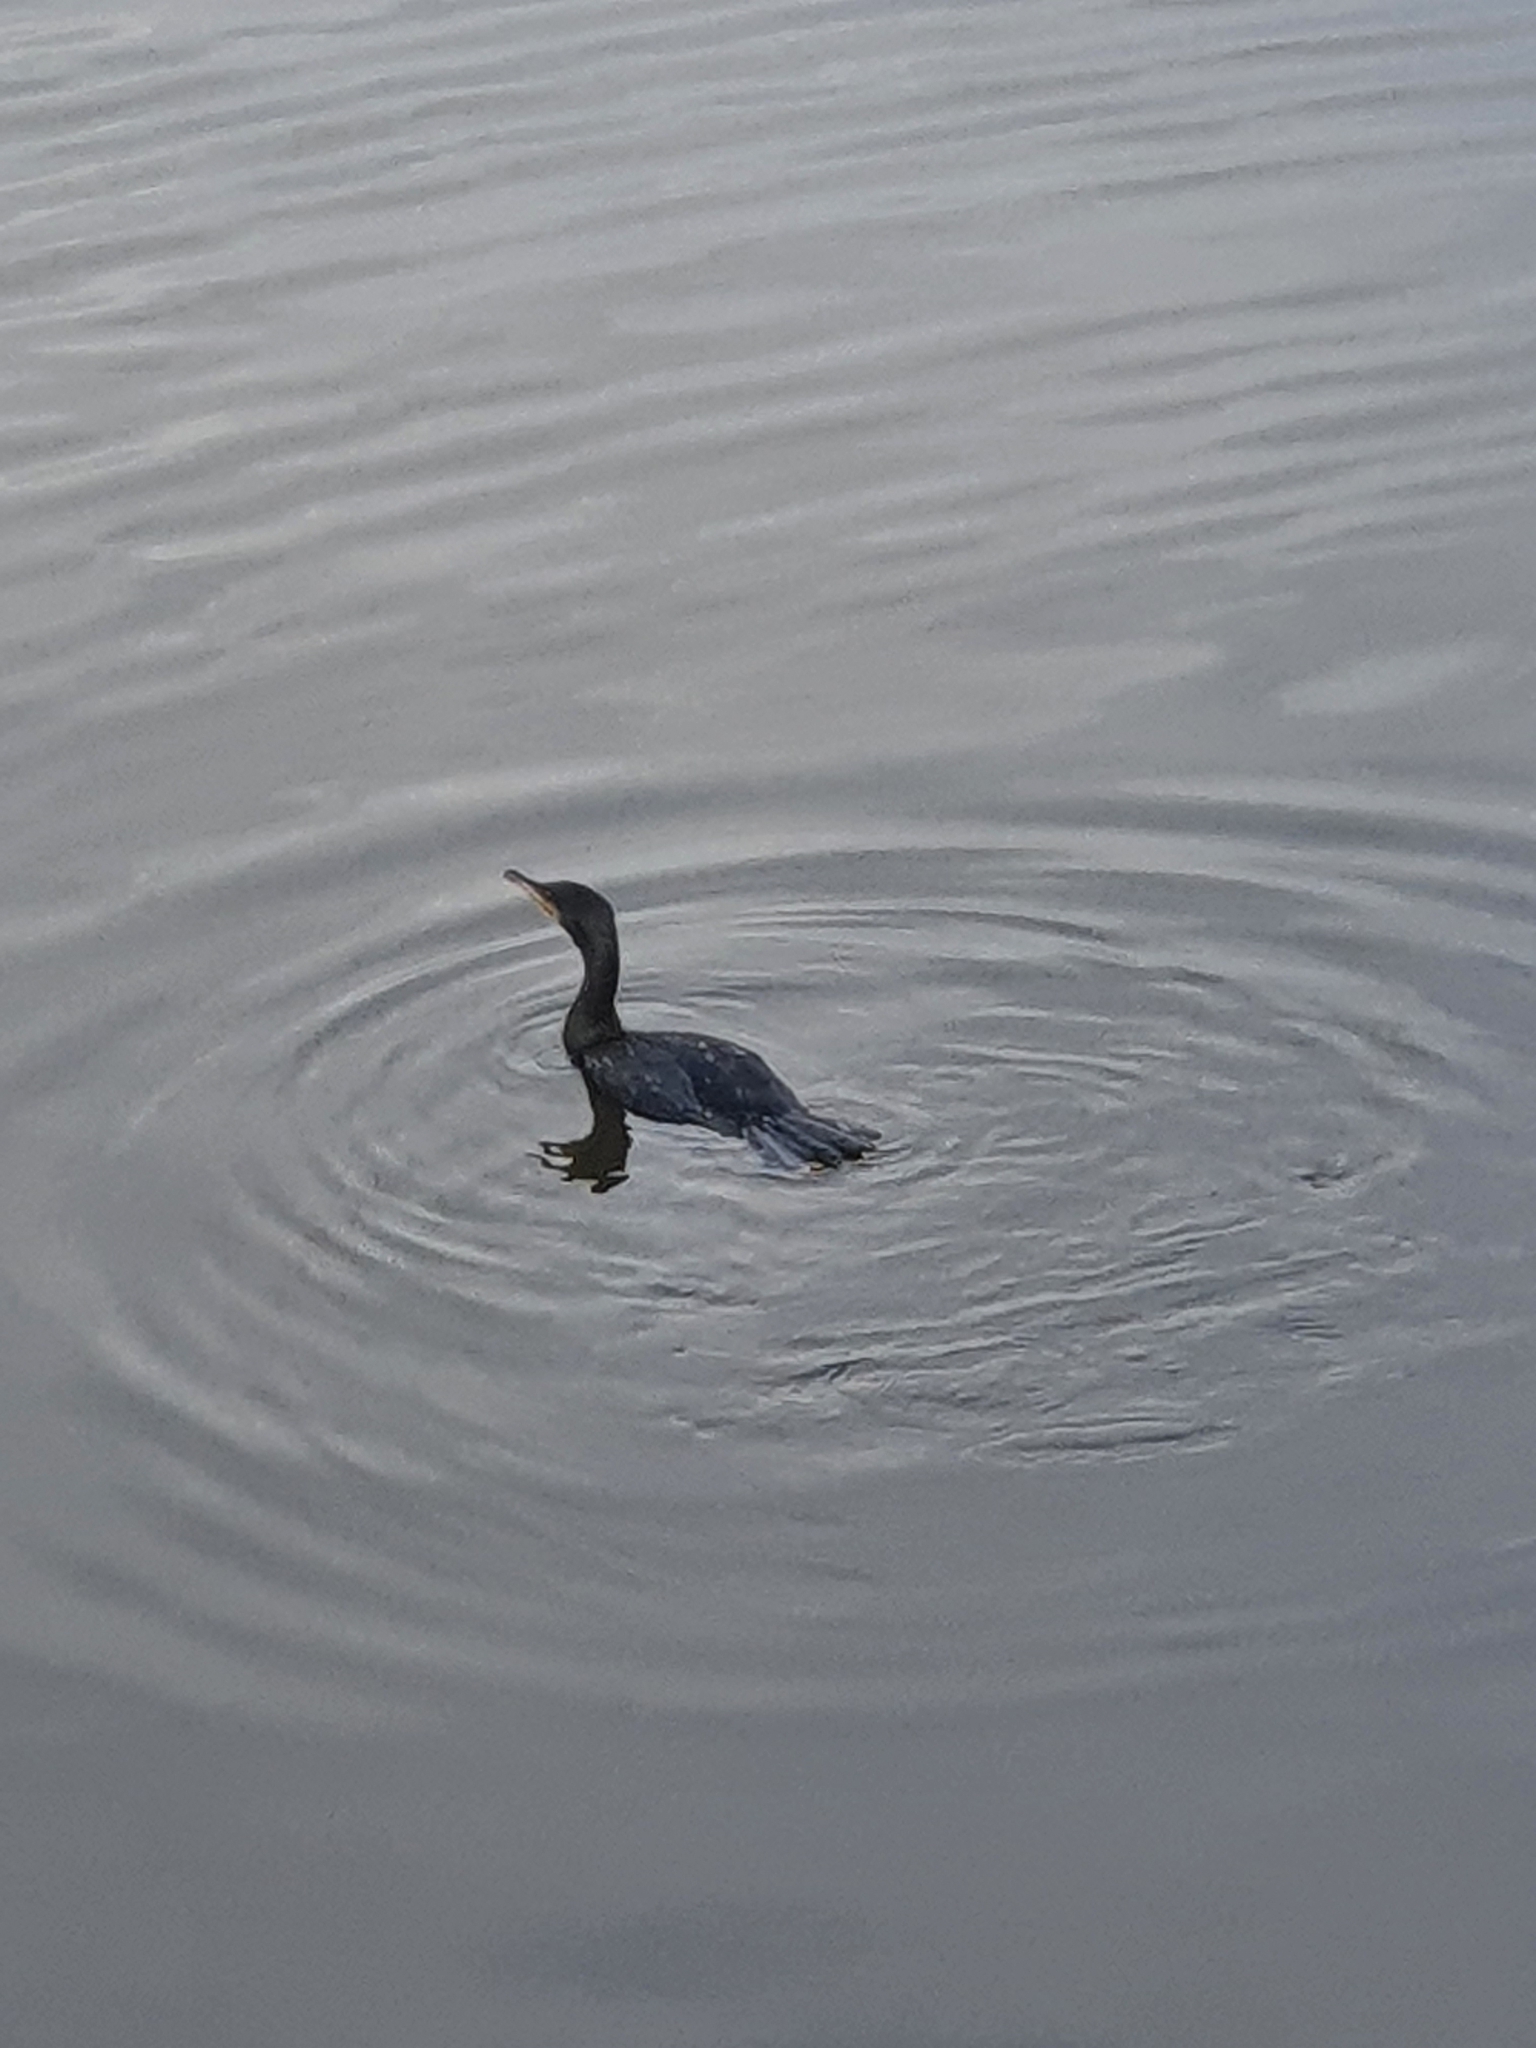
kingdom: Animalia
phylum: Chordata
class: Aves
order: Suliformes
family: Phalacrocoracidae
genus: Phalacrocorax
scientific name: Phalacrocorax carbo
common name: Great cormorant
